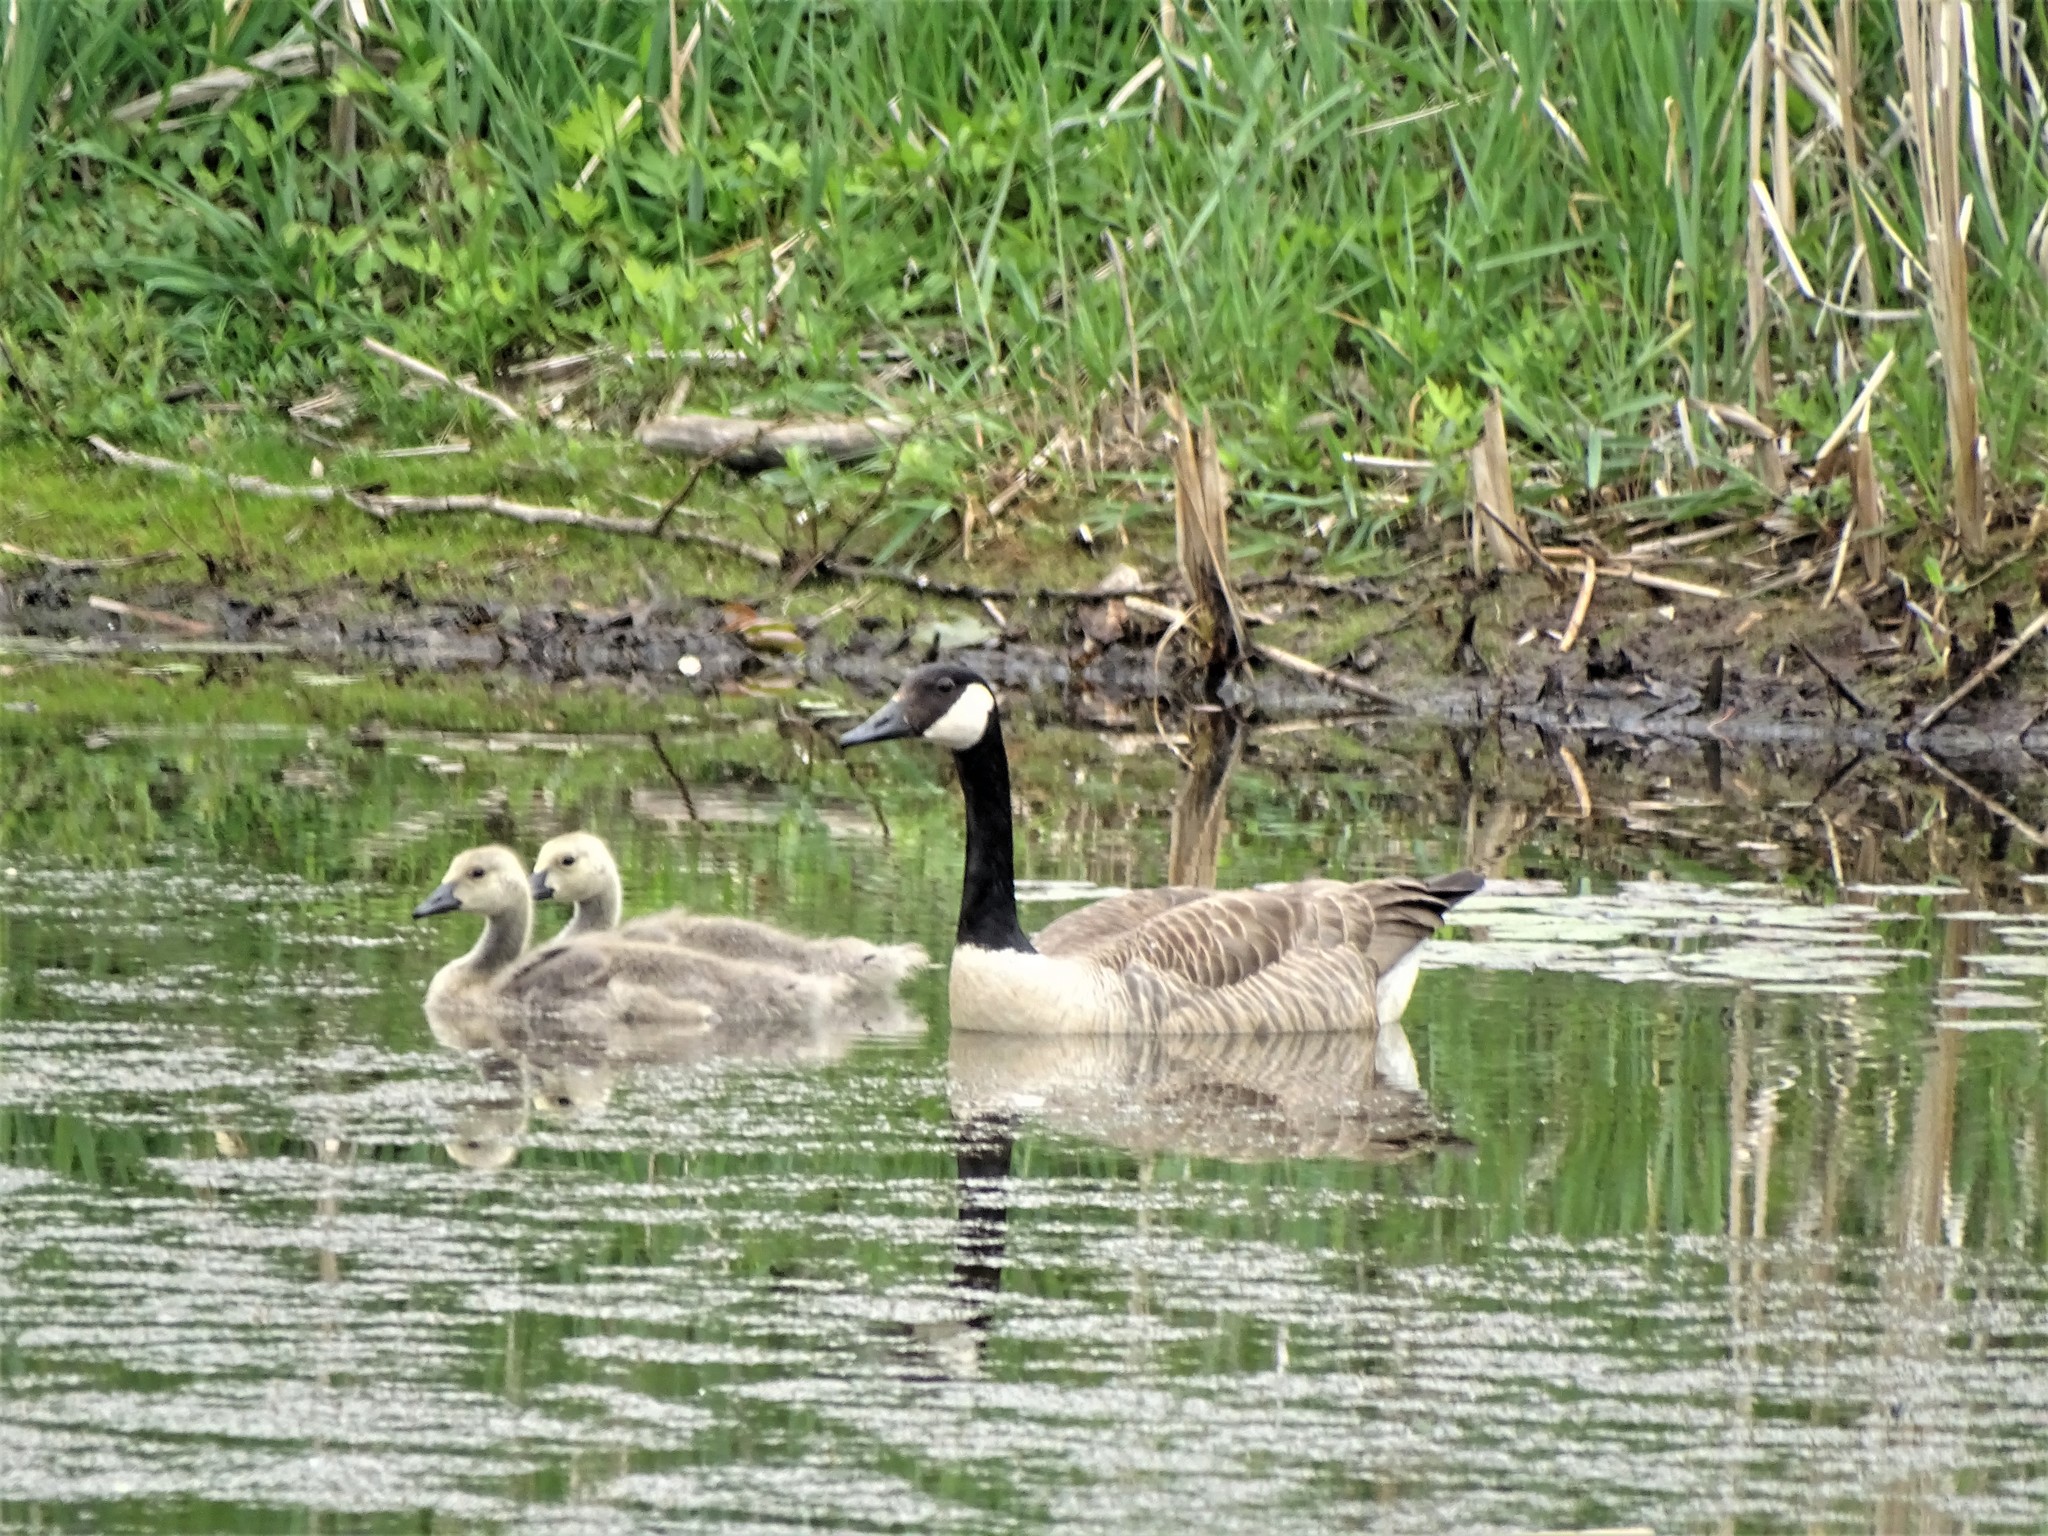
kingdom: Animalia
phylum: Chordata
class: Aves
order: Anseriformes
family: Anatidae
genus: Branta
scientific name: Branta canadensis
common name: Canada goose
